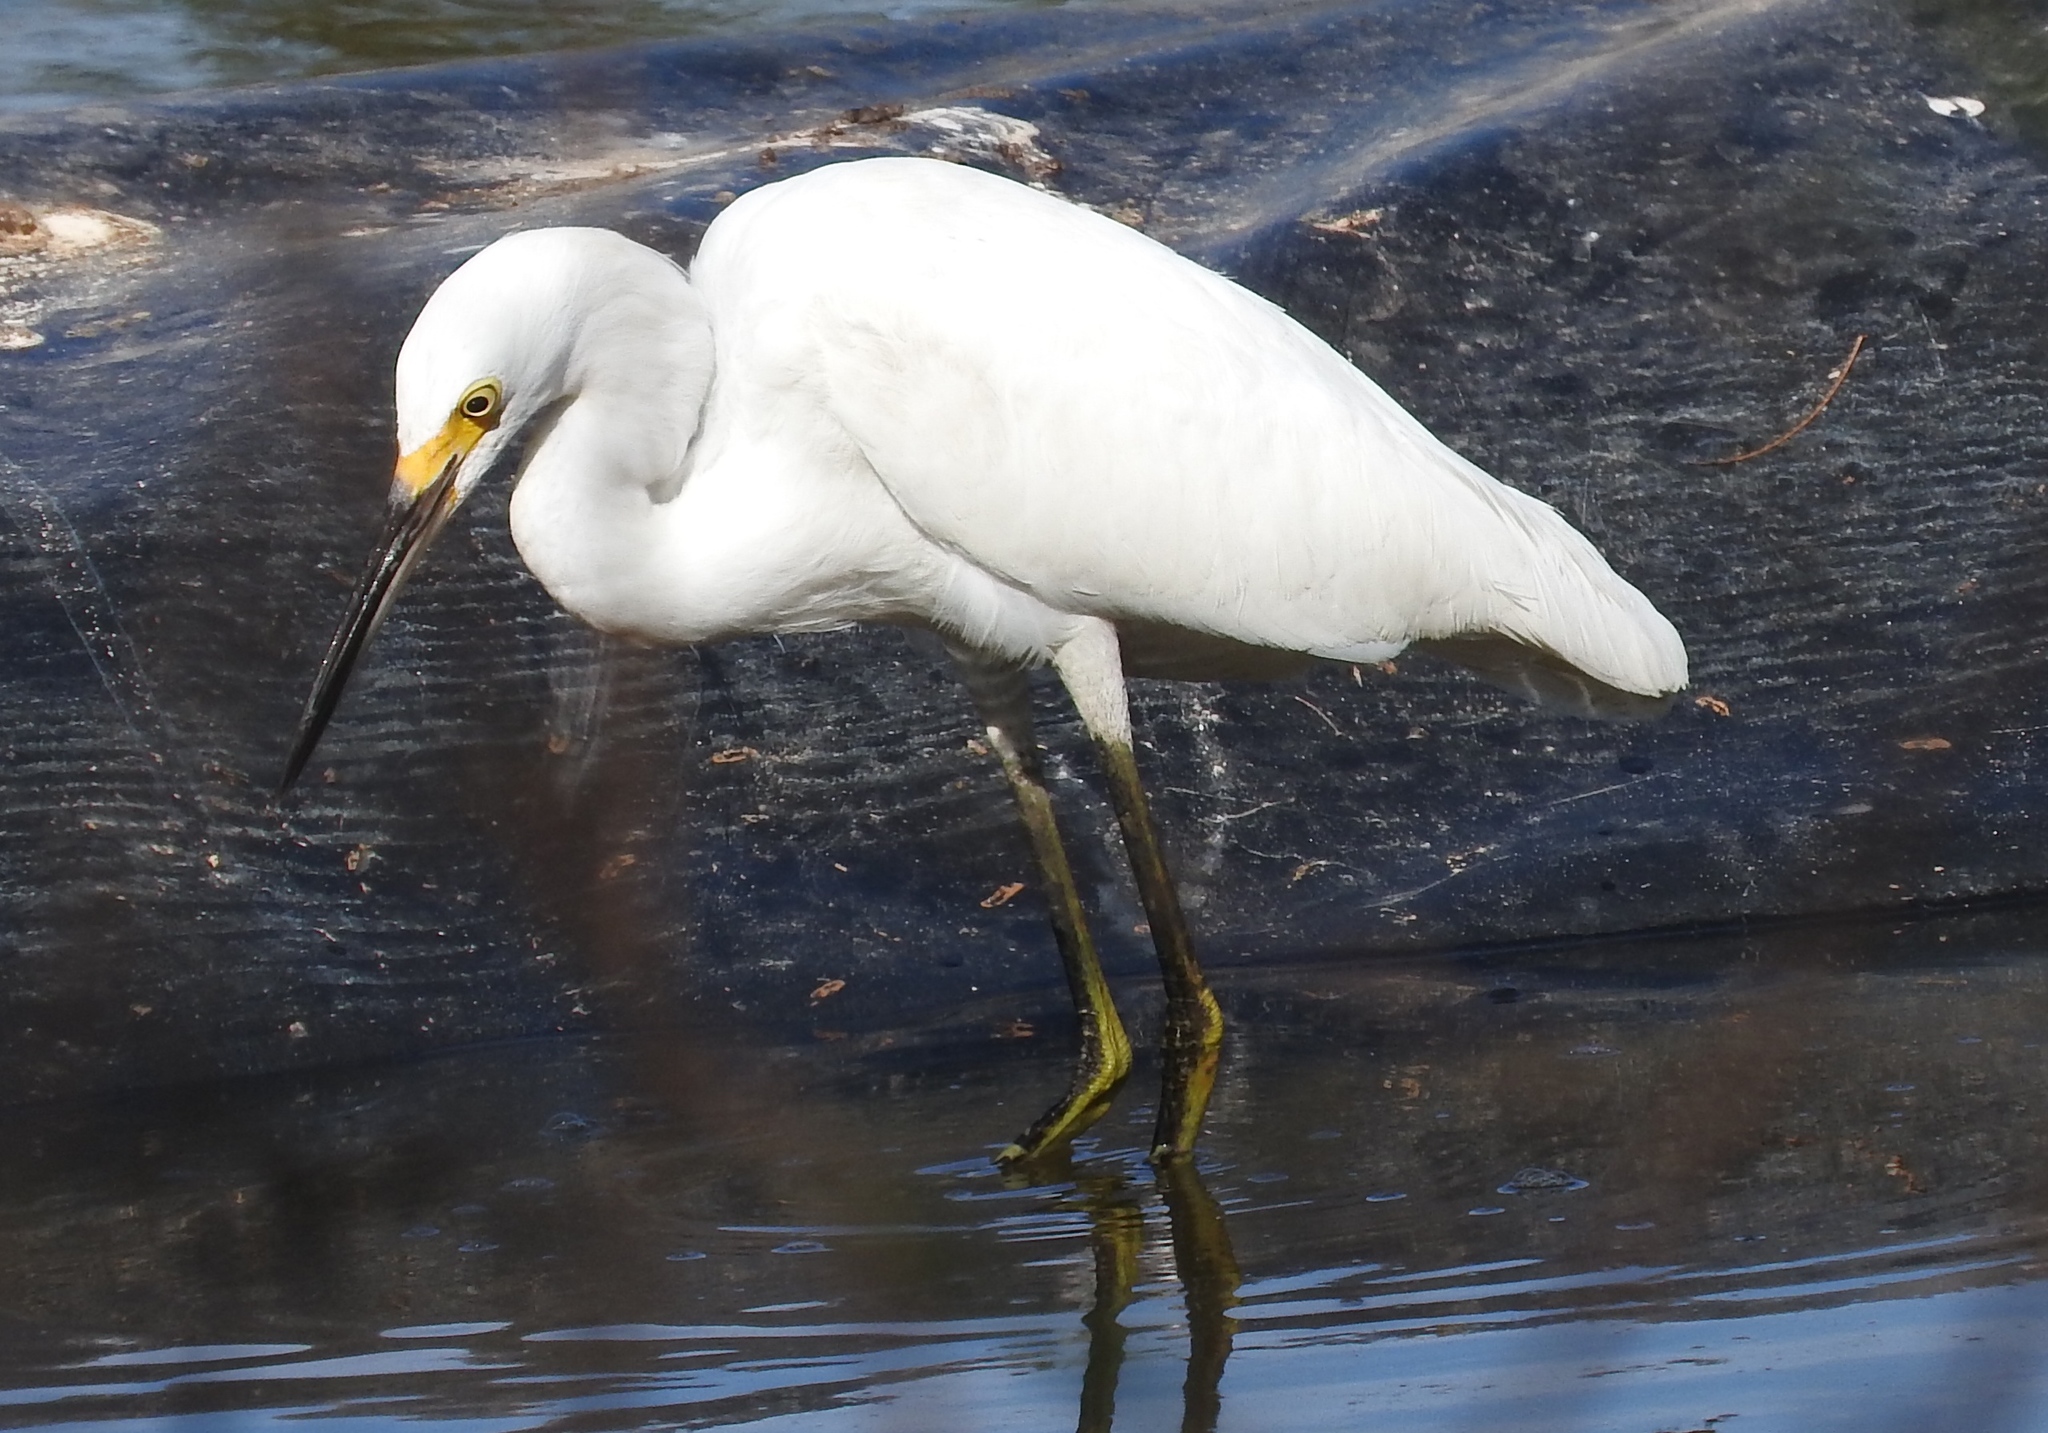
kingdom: Animalia
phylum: Chordata
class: Aves
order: Pelecaniformes
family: Ardeidae
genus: Egretta
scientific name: Egretta thula
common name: Snowy egret
